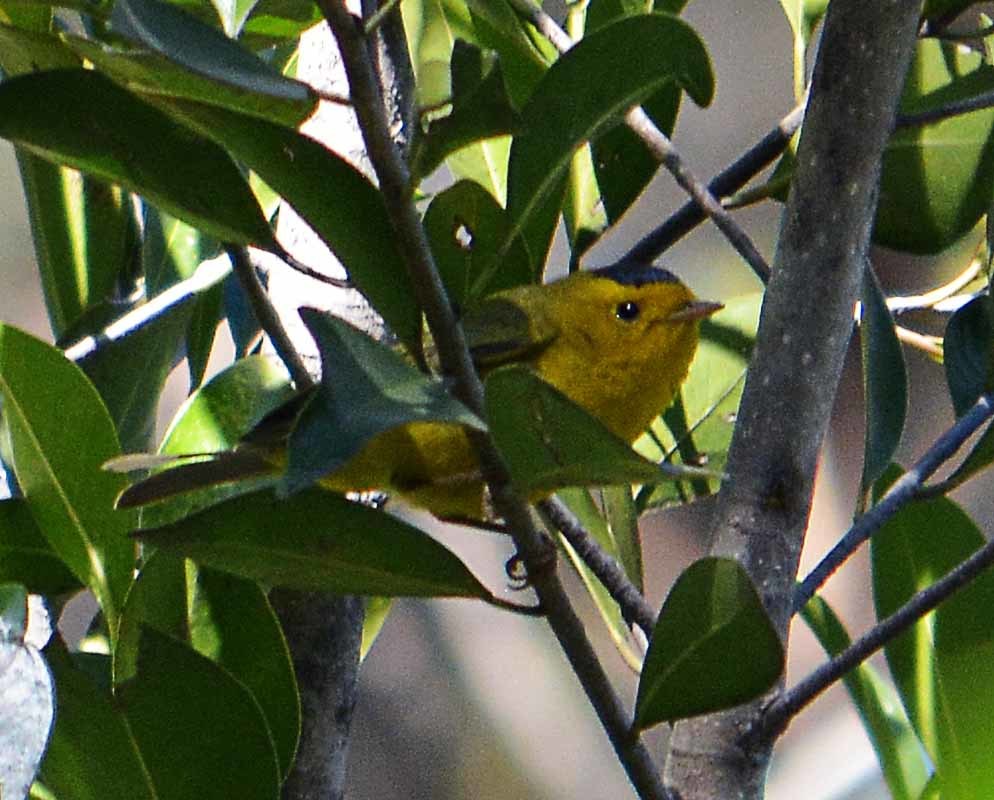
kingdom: Animalia
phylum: Chordata
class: Aves
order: Passeriformes
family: Parulidae
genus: Cardellina
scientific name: Cardellina pusilla
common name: Wilson's warbler
